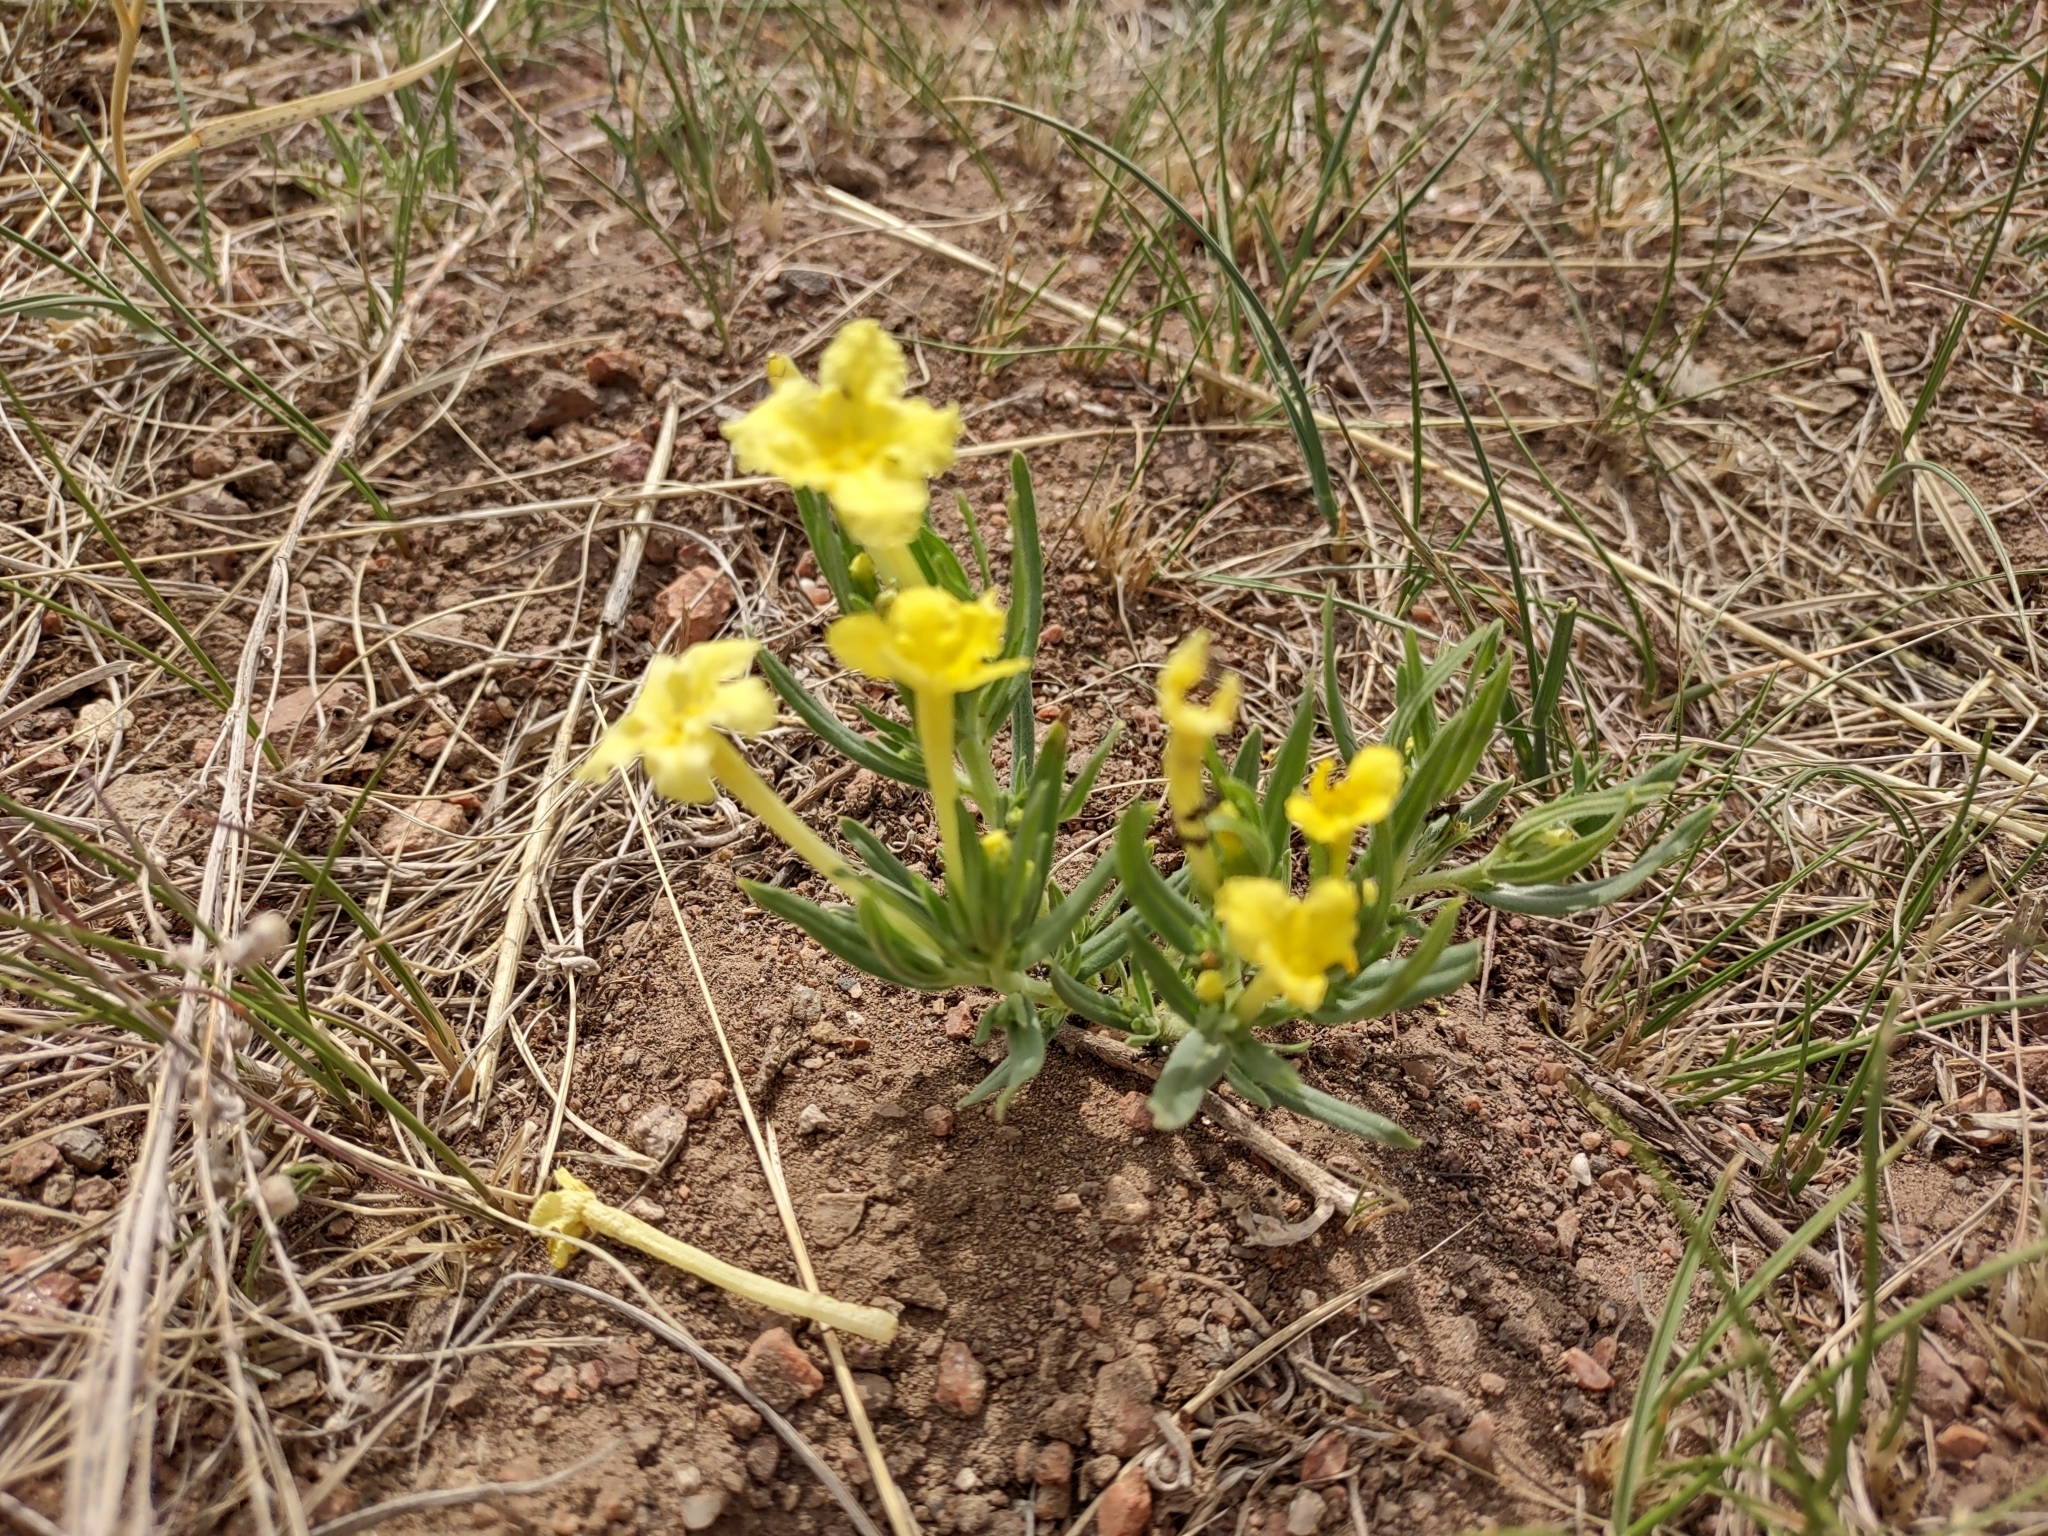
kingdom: Plantae
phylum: Tracheophyta
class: Magnoliopsida
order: Boraginales
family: Boraginaceae
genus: Lithospermum
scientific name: Lithospermum incisum
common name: Fringed gromwell
